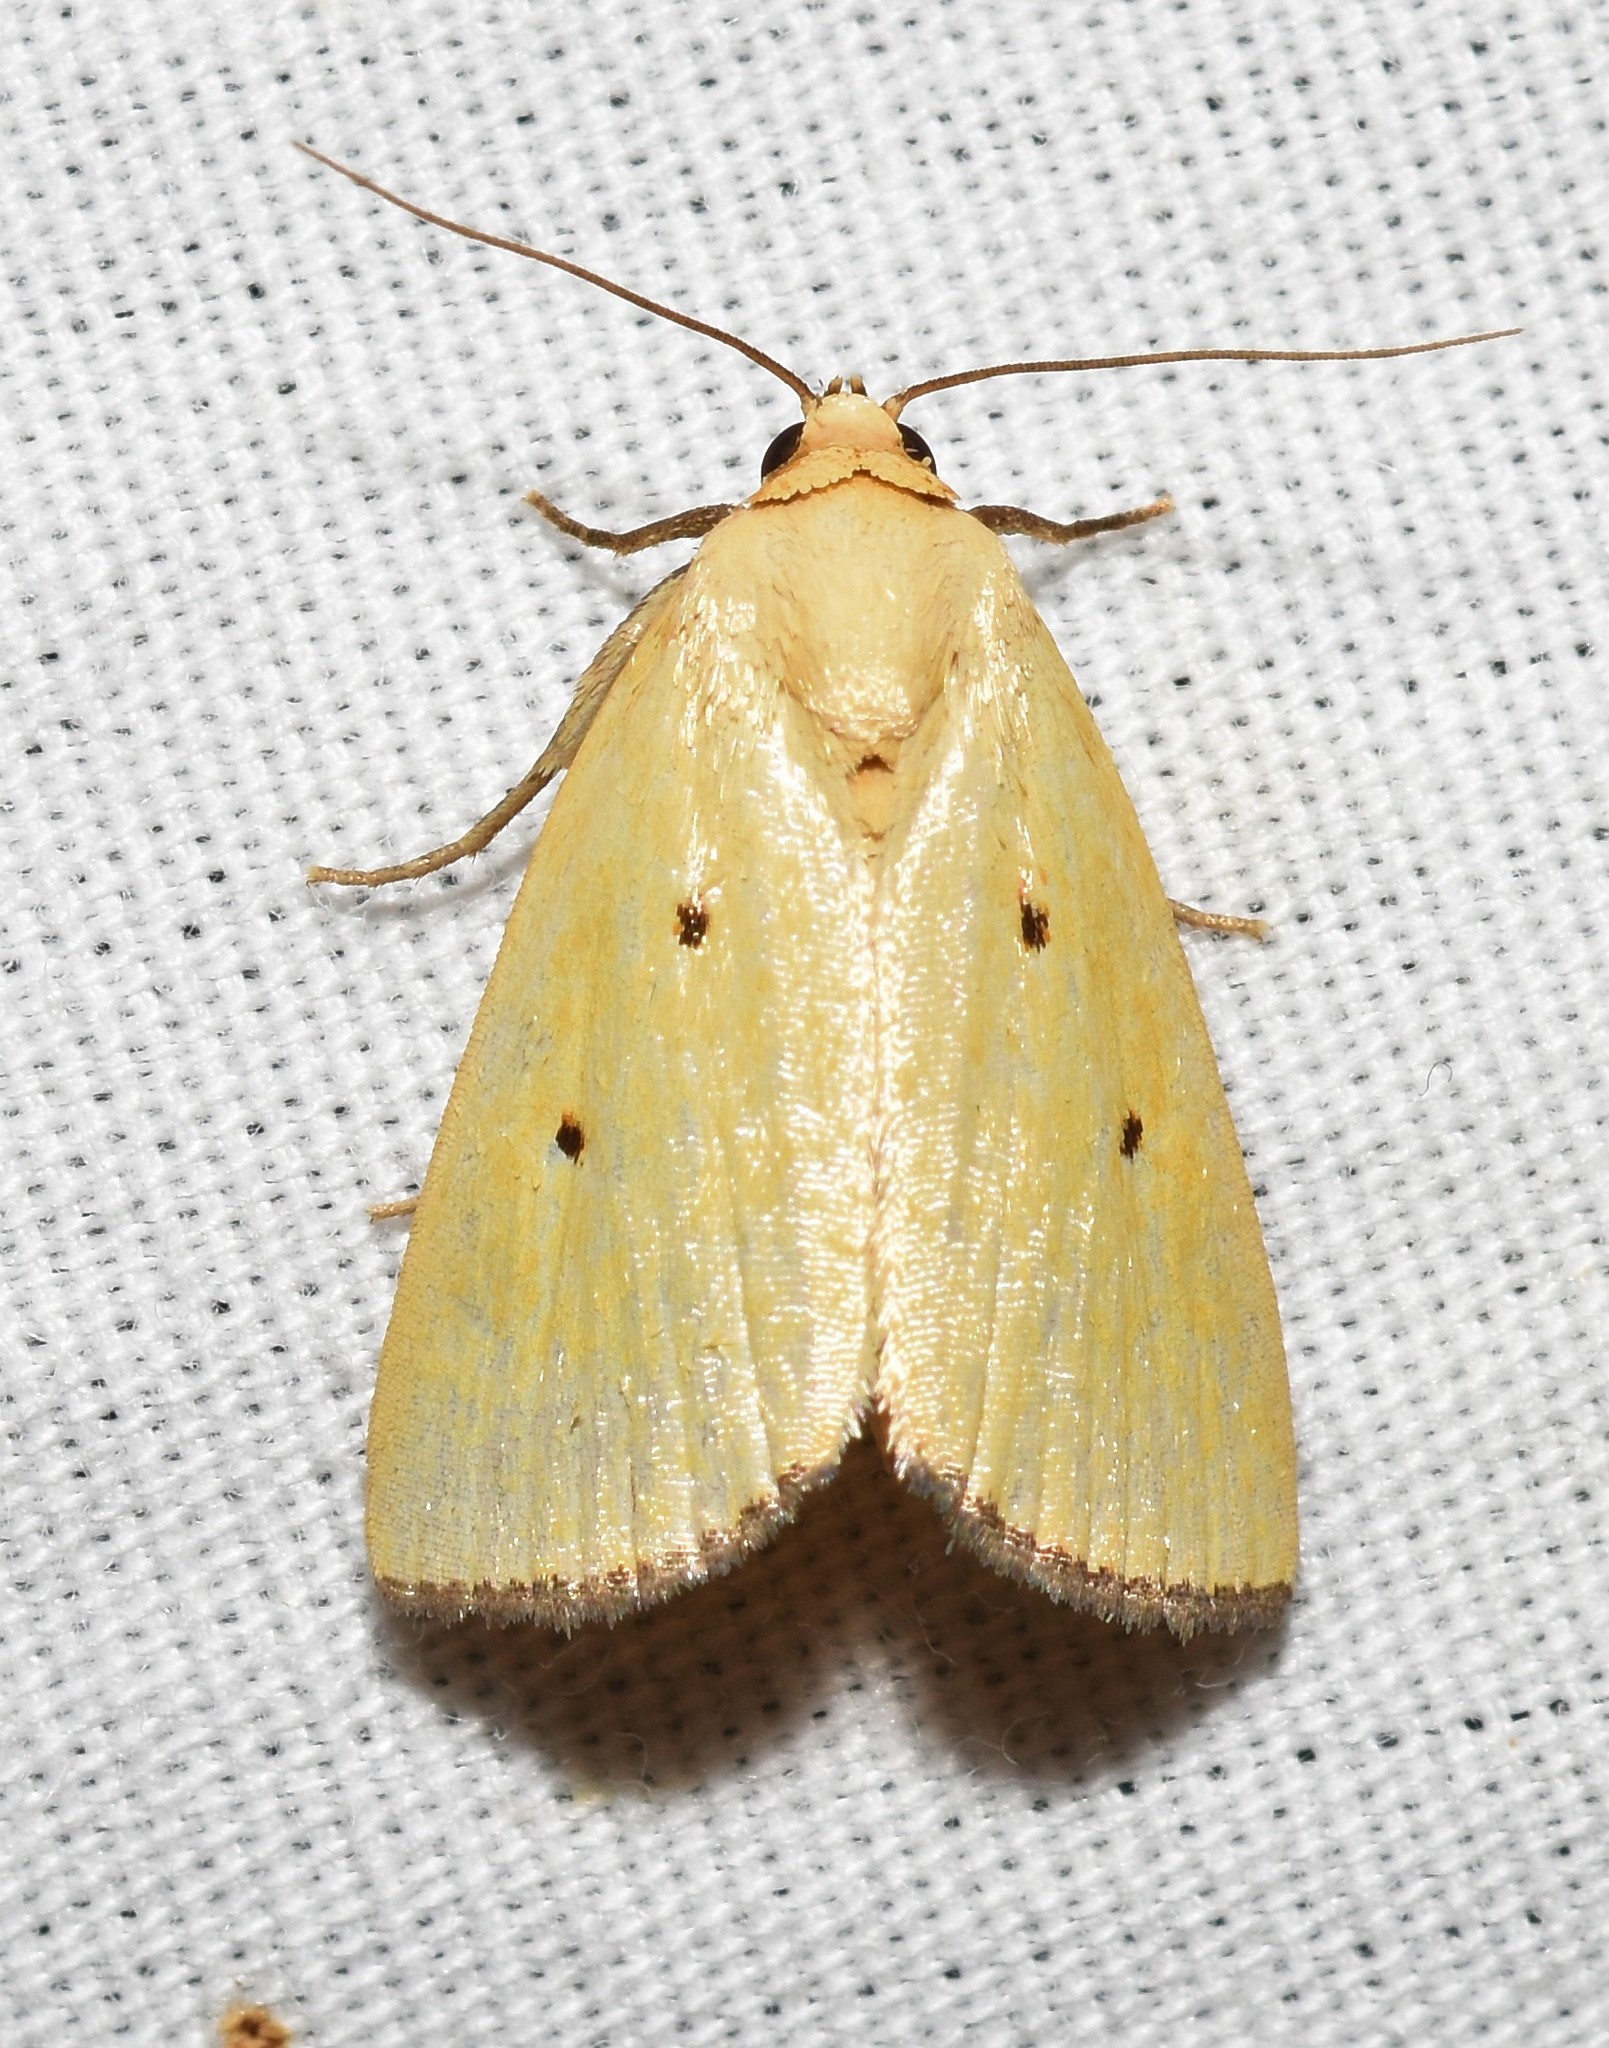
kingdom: Animalia
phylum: Arthropoda
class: Insecta
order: Lepidoptera
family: Noctuidae
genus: Marimatha
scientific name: Marimatha nigrofimbria
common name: Black-bordered lemon moth
